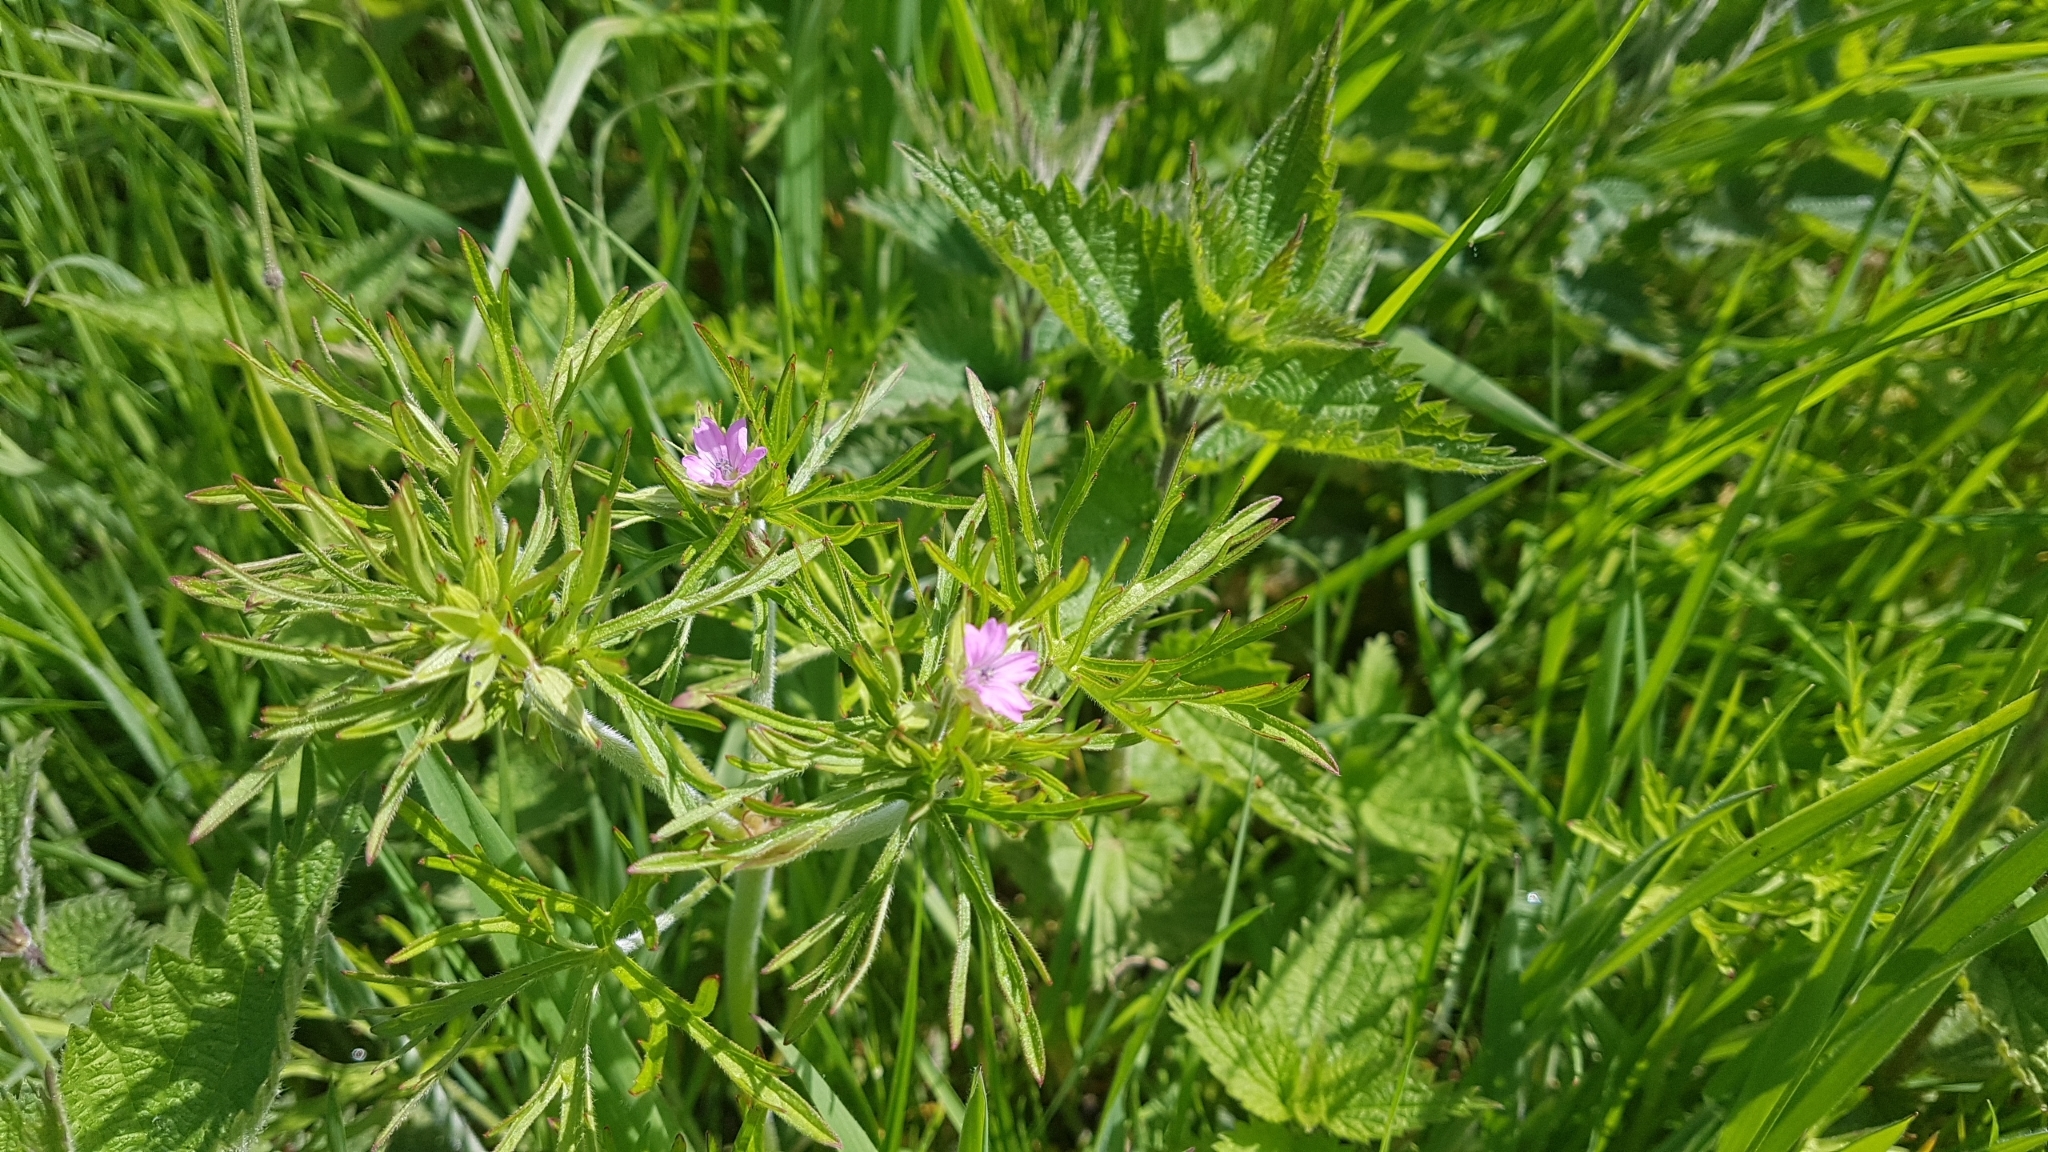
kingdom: Plantae
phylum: Tracheophyta
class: Magnoliopsida
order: Geraniales
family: Geraniaceae
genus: Geranium
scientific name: Geranium dissectum
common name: Cut-leaved crane's-bill
